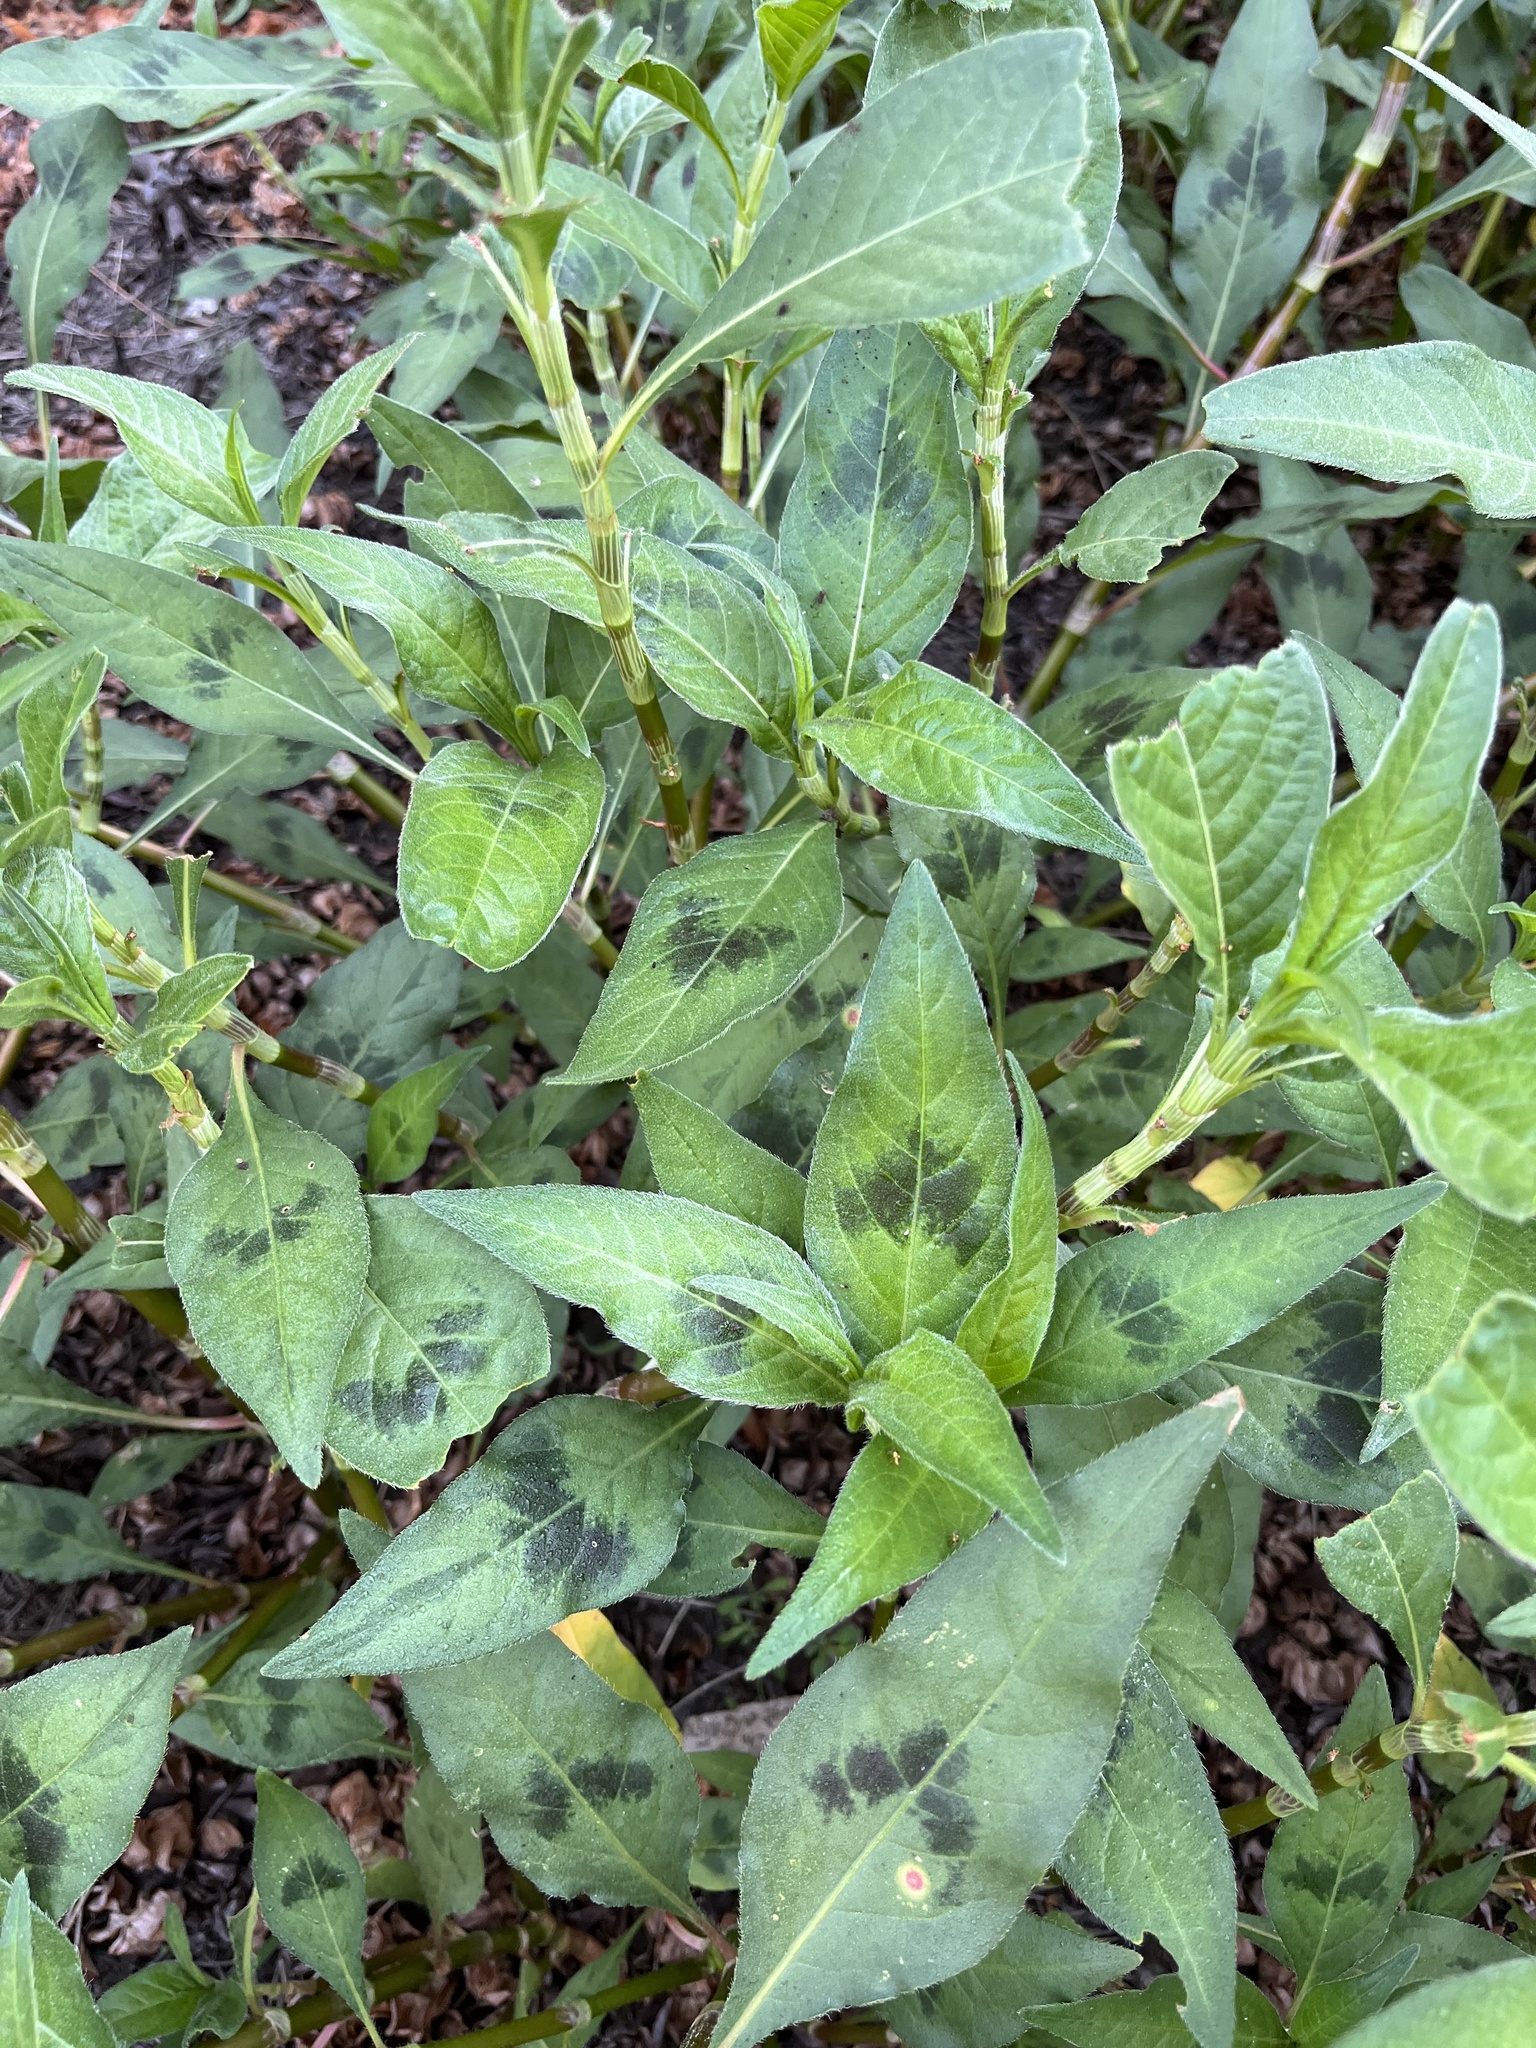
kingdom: Plantae
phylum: Tracheophyta
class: Magnoliopsida
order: Caryophyllales
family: Polygonaceae
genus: Persicaria
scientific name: Persicaria attenuata
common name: Hairy knotweed
